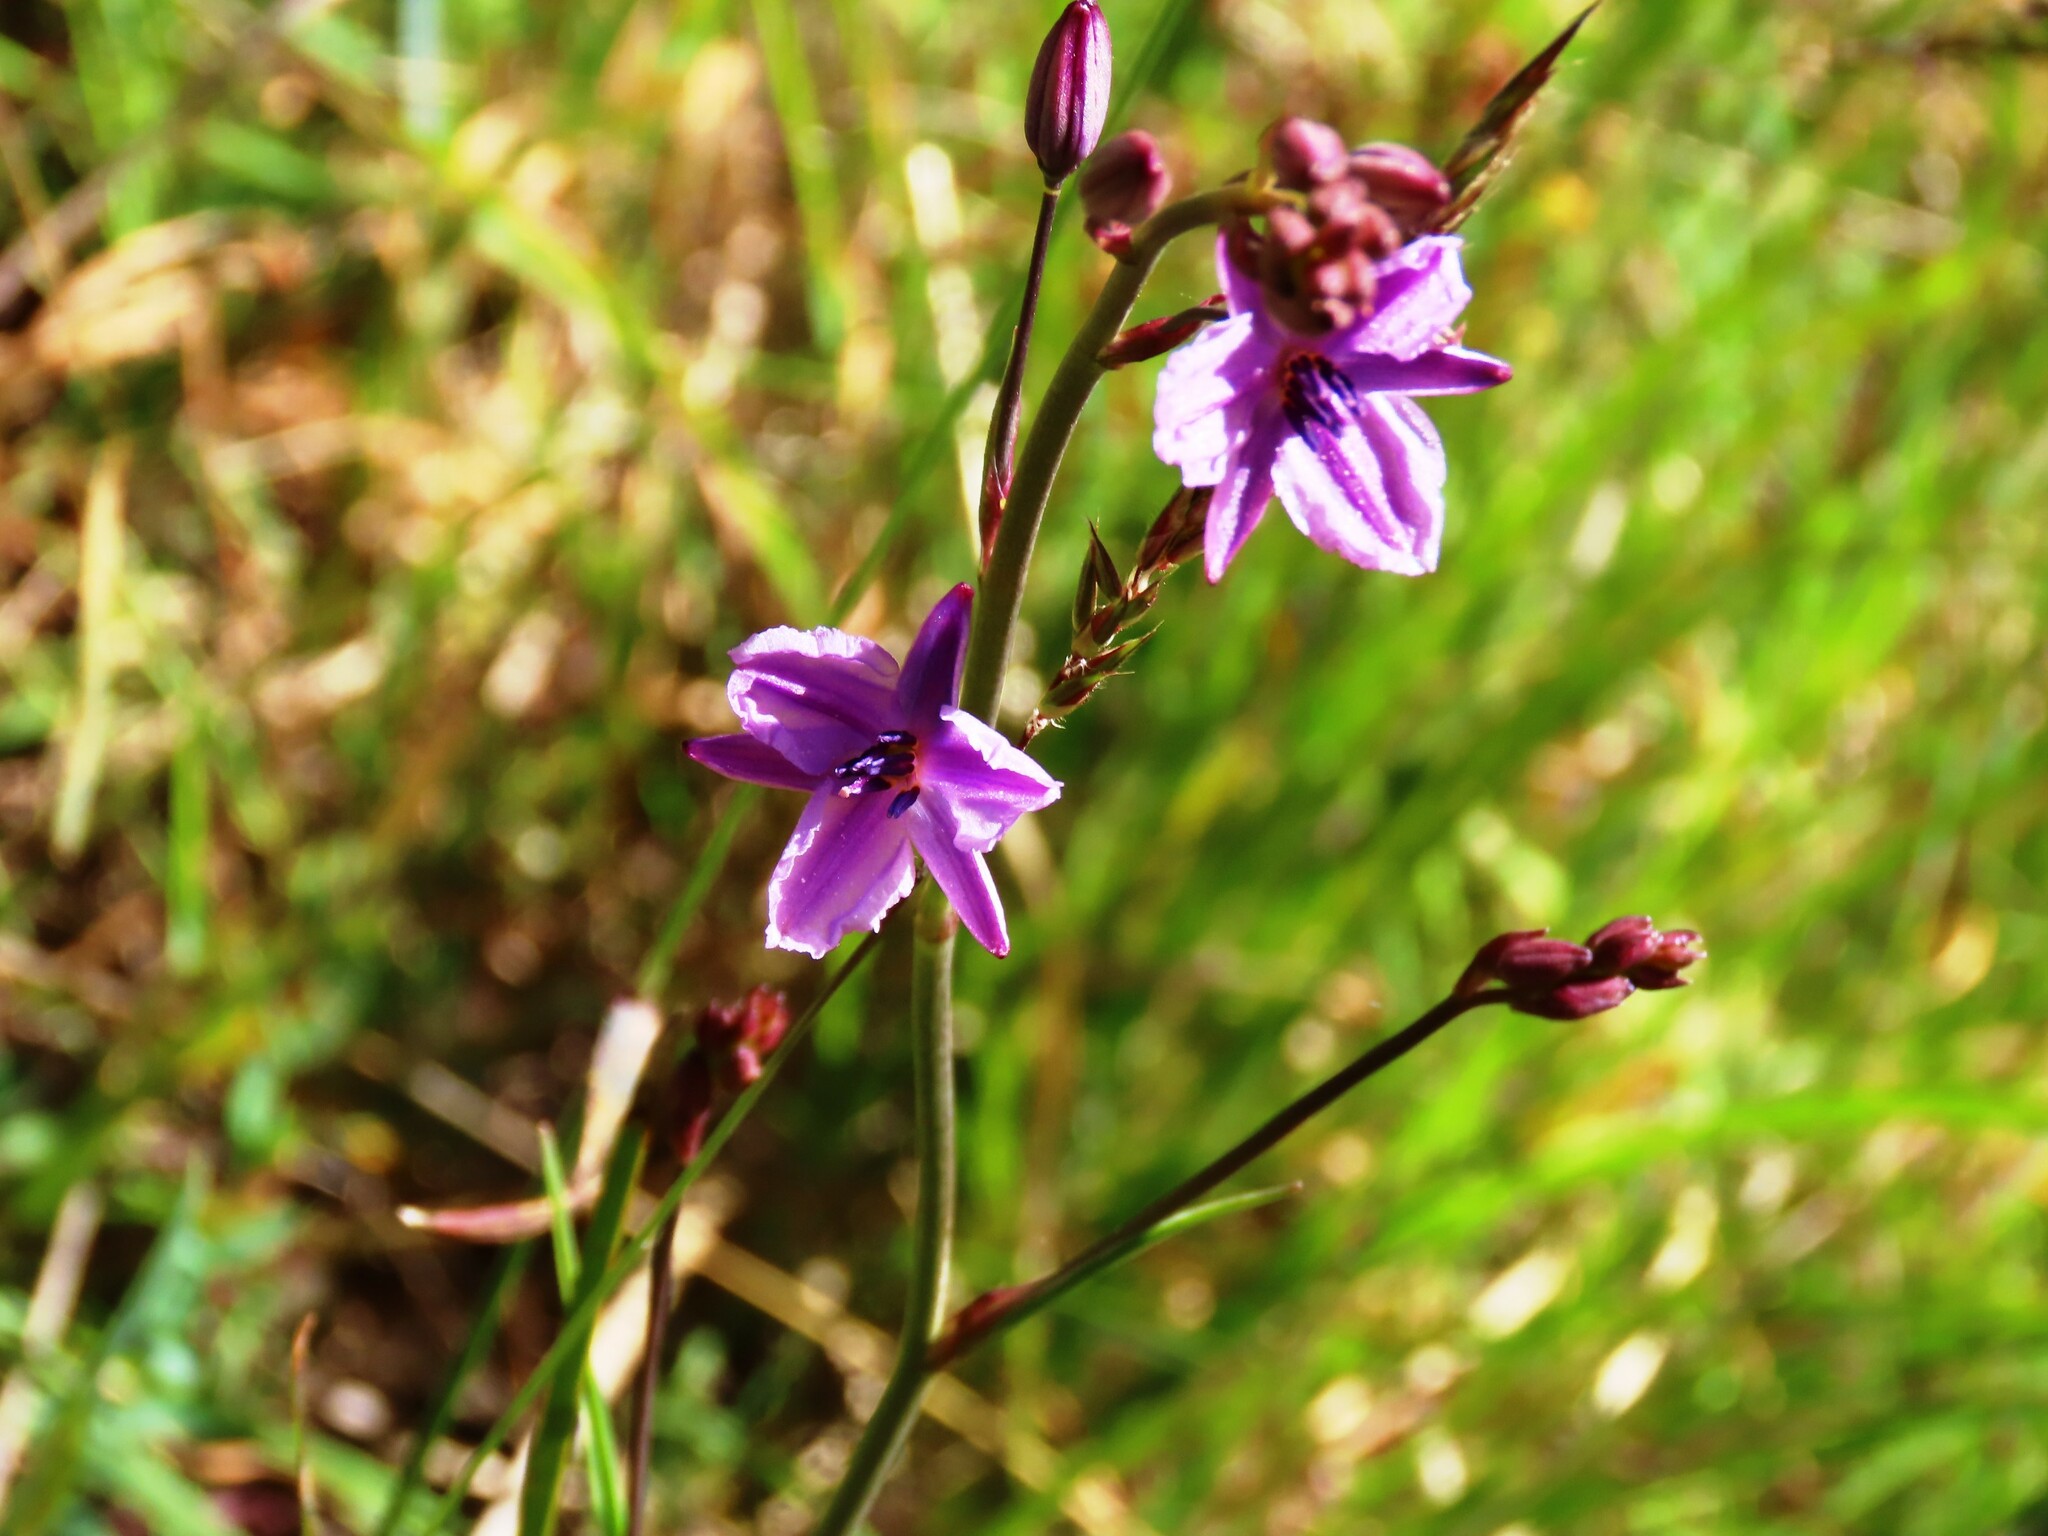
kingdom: Plantae
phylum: Tracheophyta
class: Liliopsida
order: Asparagales
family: Asparagaceae
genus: Arthropodium
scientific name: Arthropodium strictum
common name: Chocolate-lily
